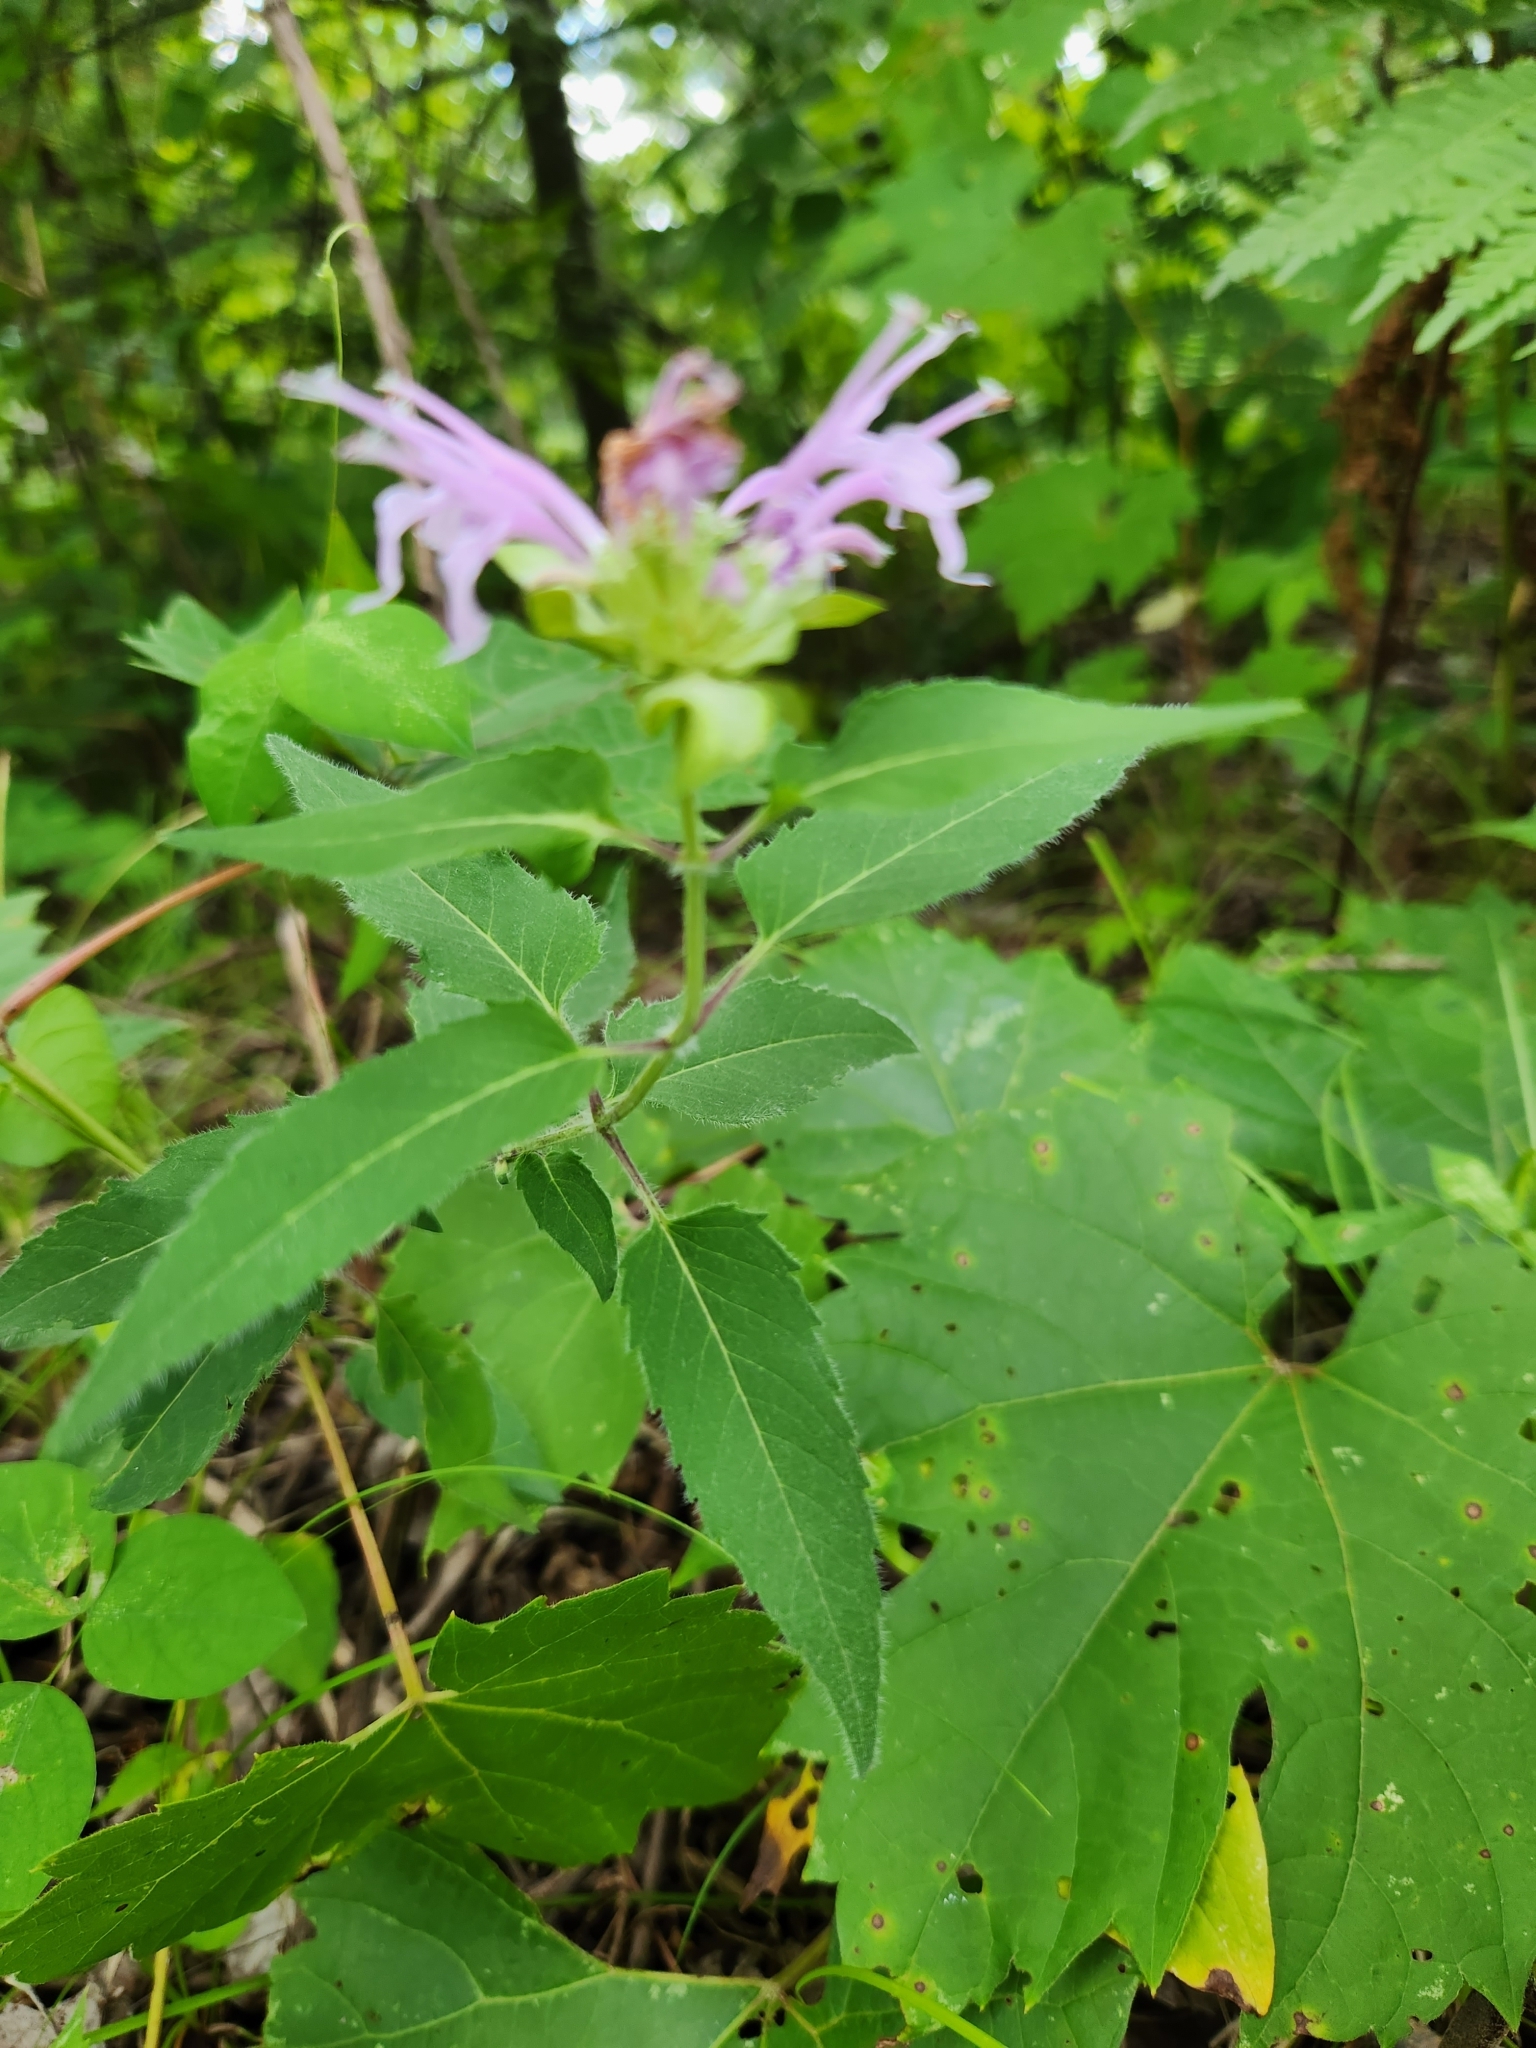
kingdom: Plantae
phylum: Tracheophyta
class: Magnoliopsida
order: Lamiales
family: Lamiaceae
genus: Monarda
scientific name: Monarda fistulosa
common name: Purple beebalm
